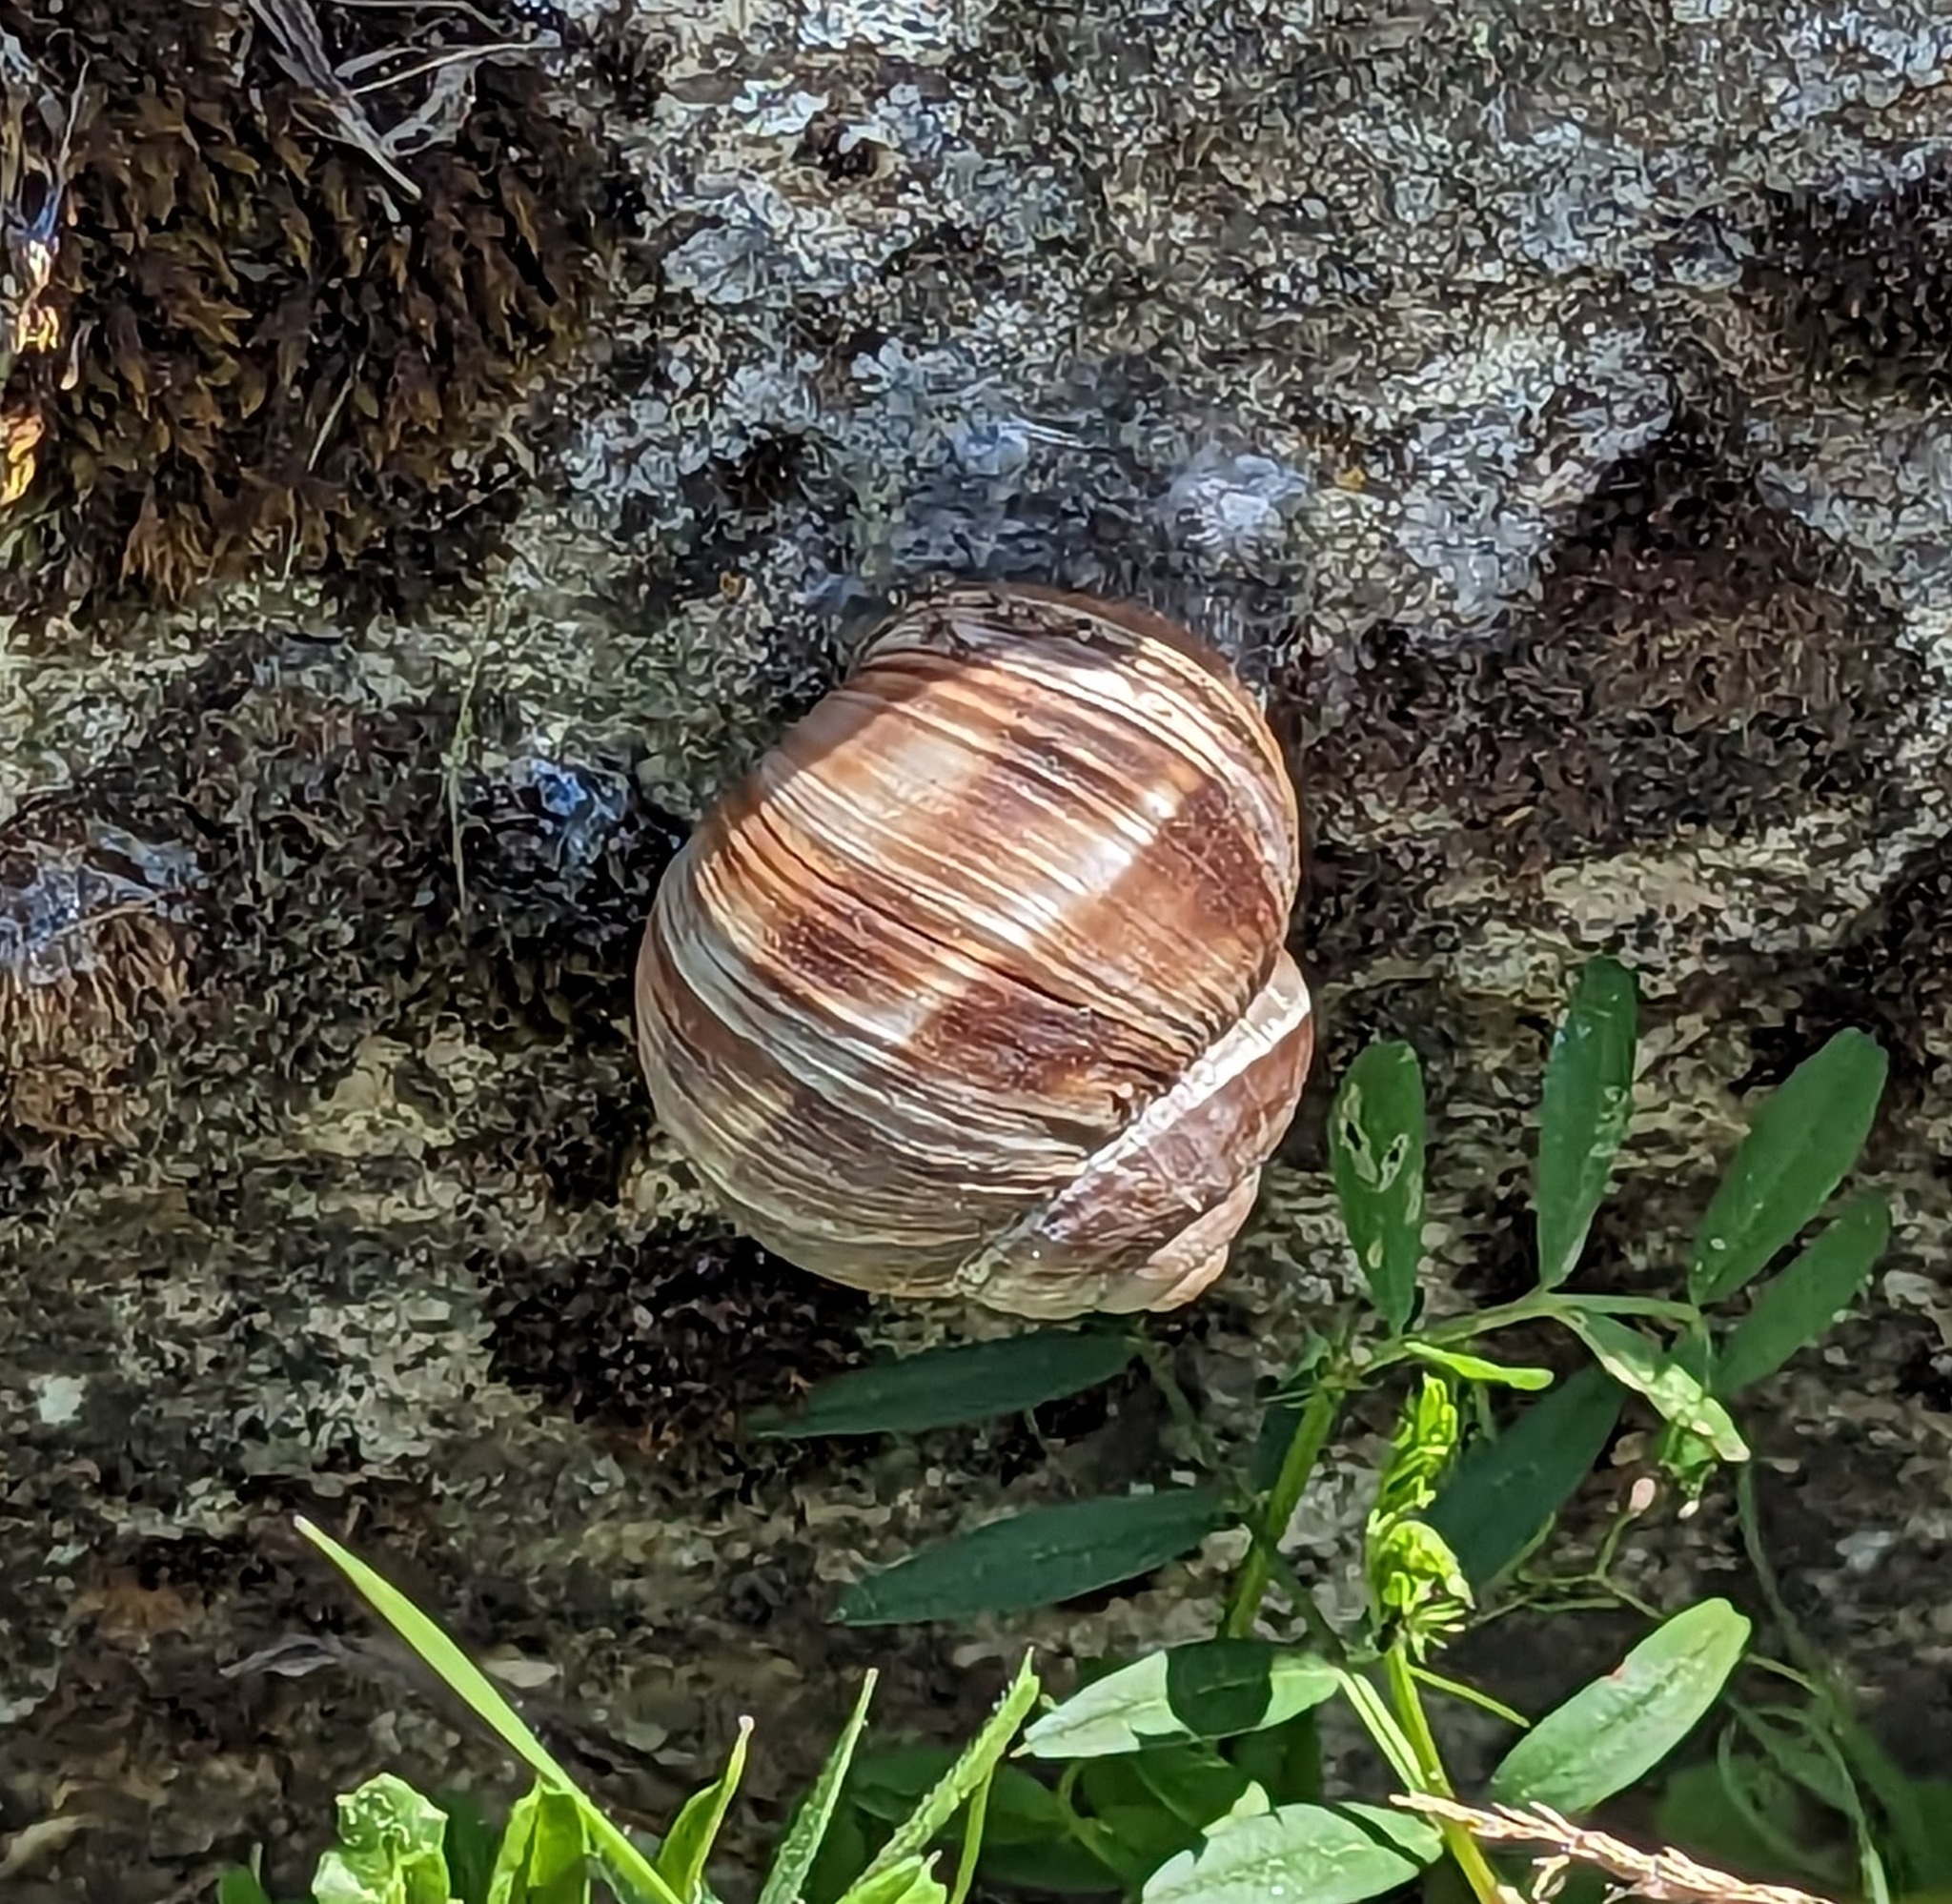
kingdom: Animalia
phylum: Mollusca
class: Gastropoda
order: Stylommatophora
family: Helicidae
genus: Helix
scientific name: Helix lucorum
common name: Turkish snail
